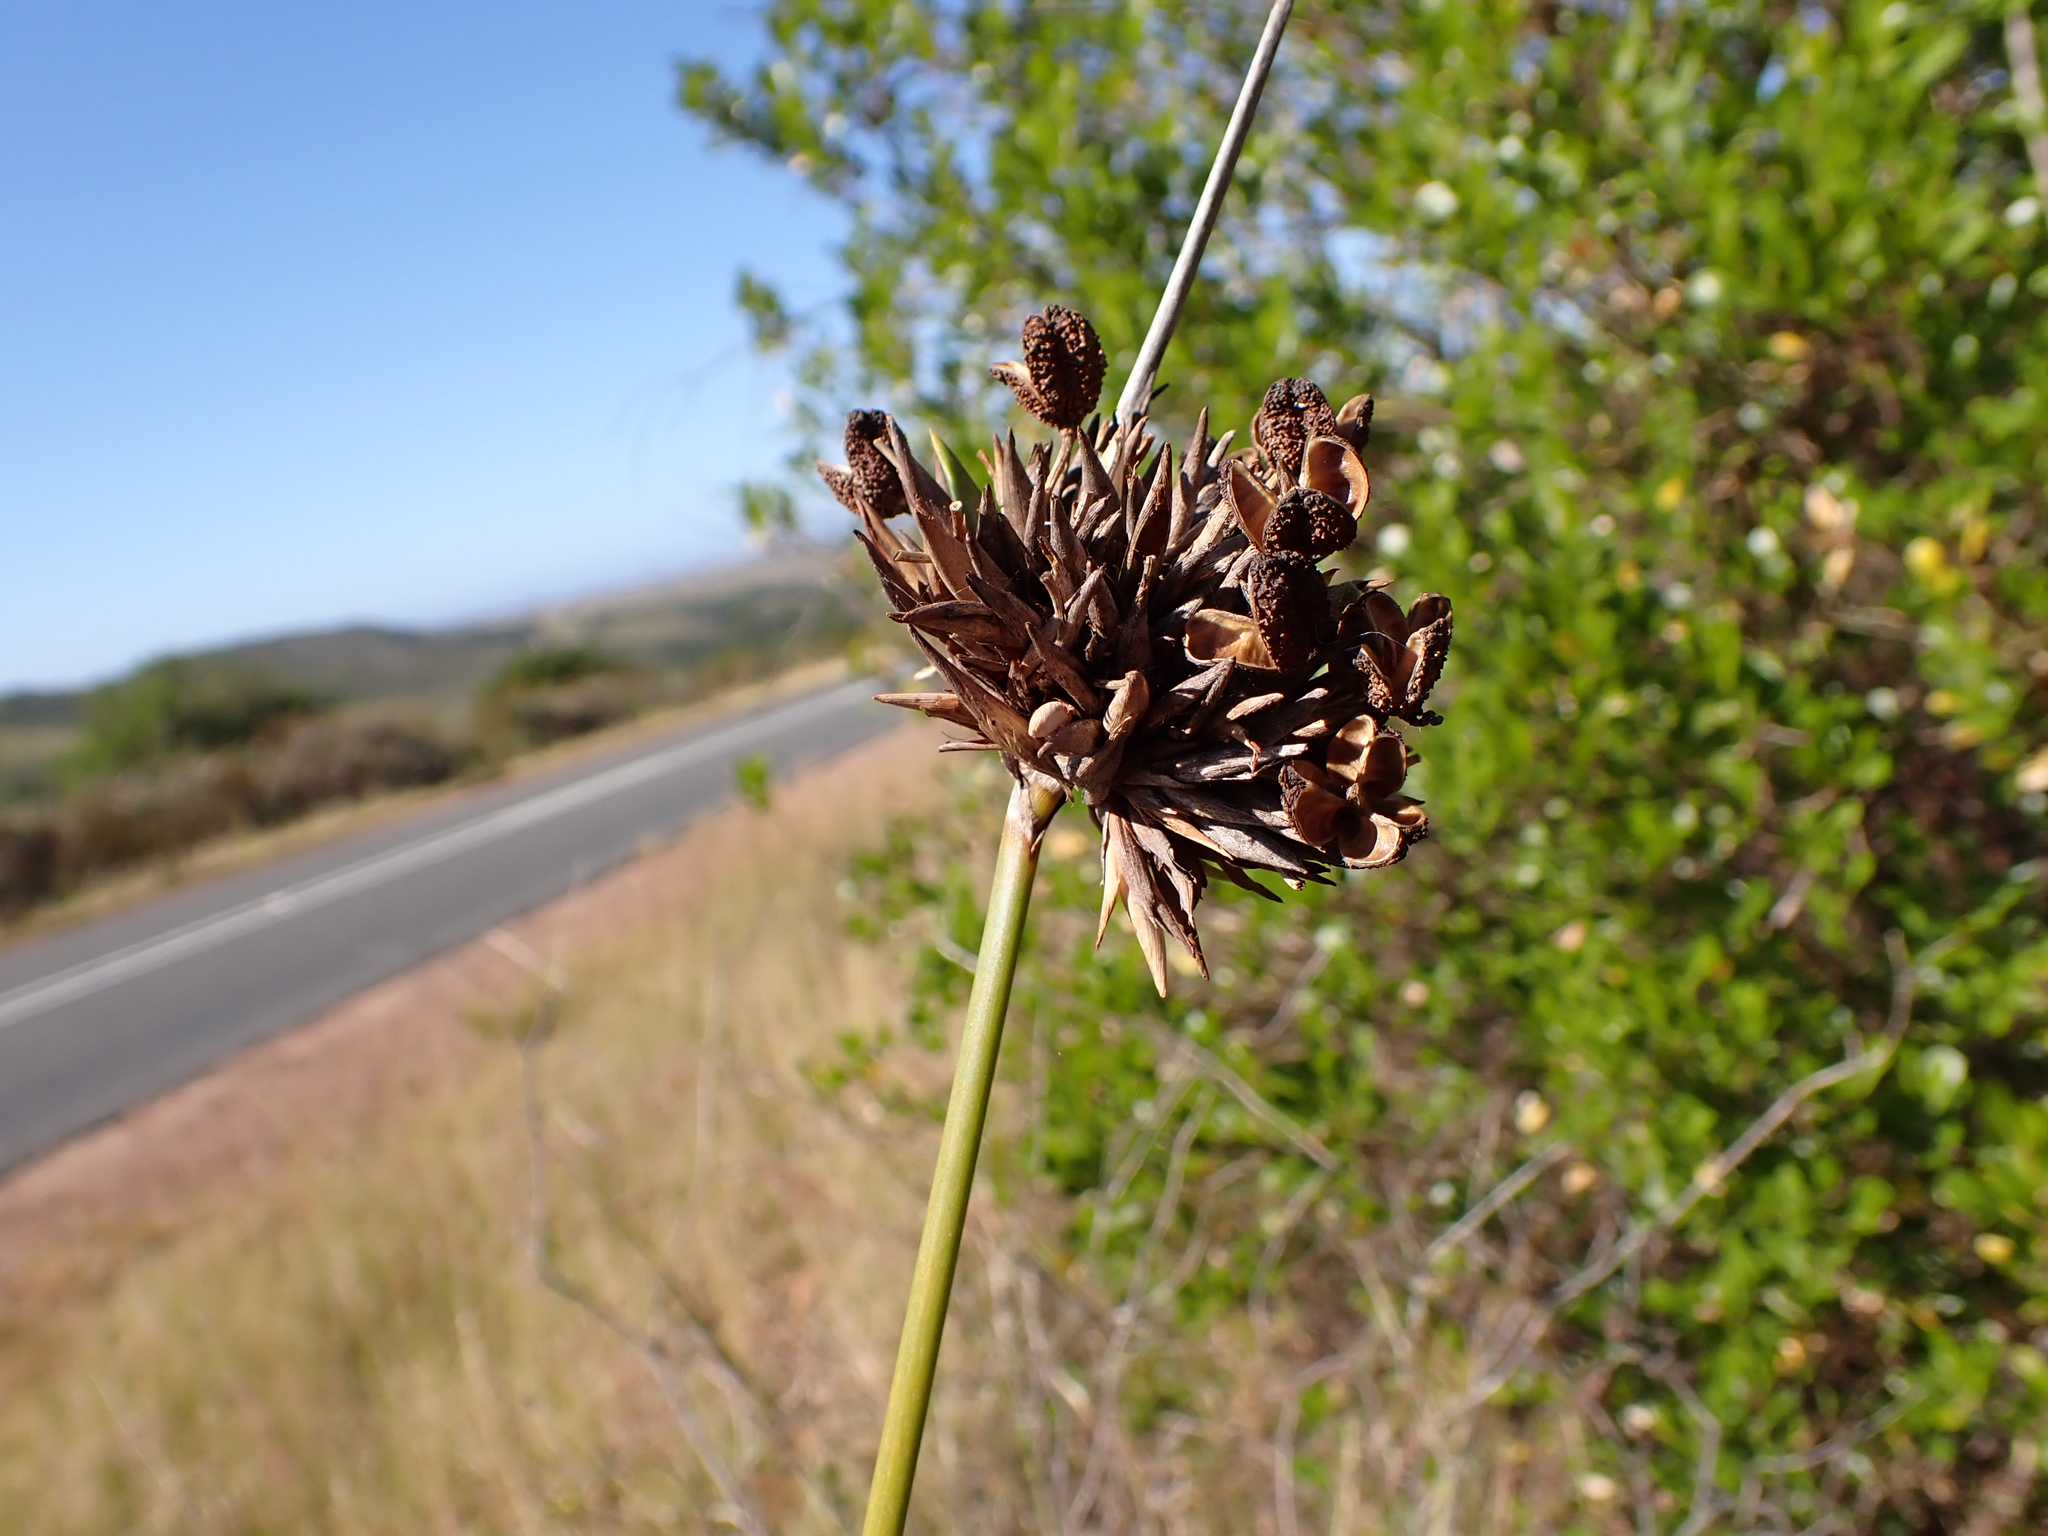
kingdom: Plantae
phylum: Tracheophyta
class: Liliopsida
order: Asparagales
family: Iridaceae
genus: Bobartia
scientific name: Bobartia robusta
